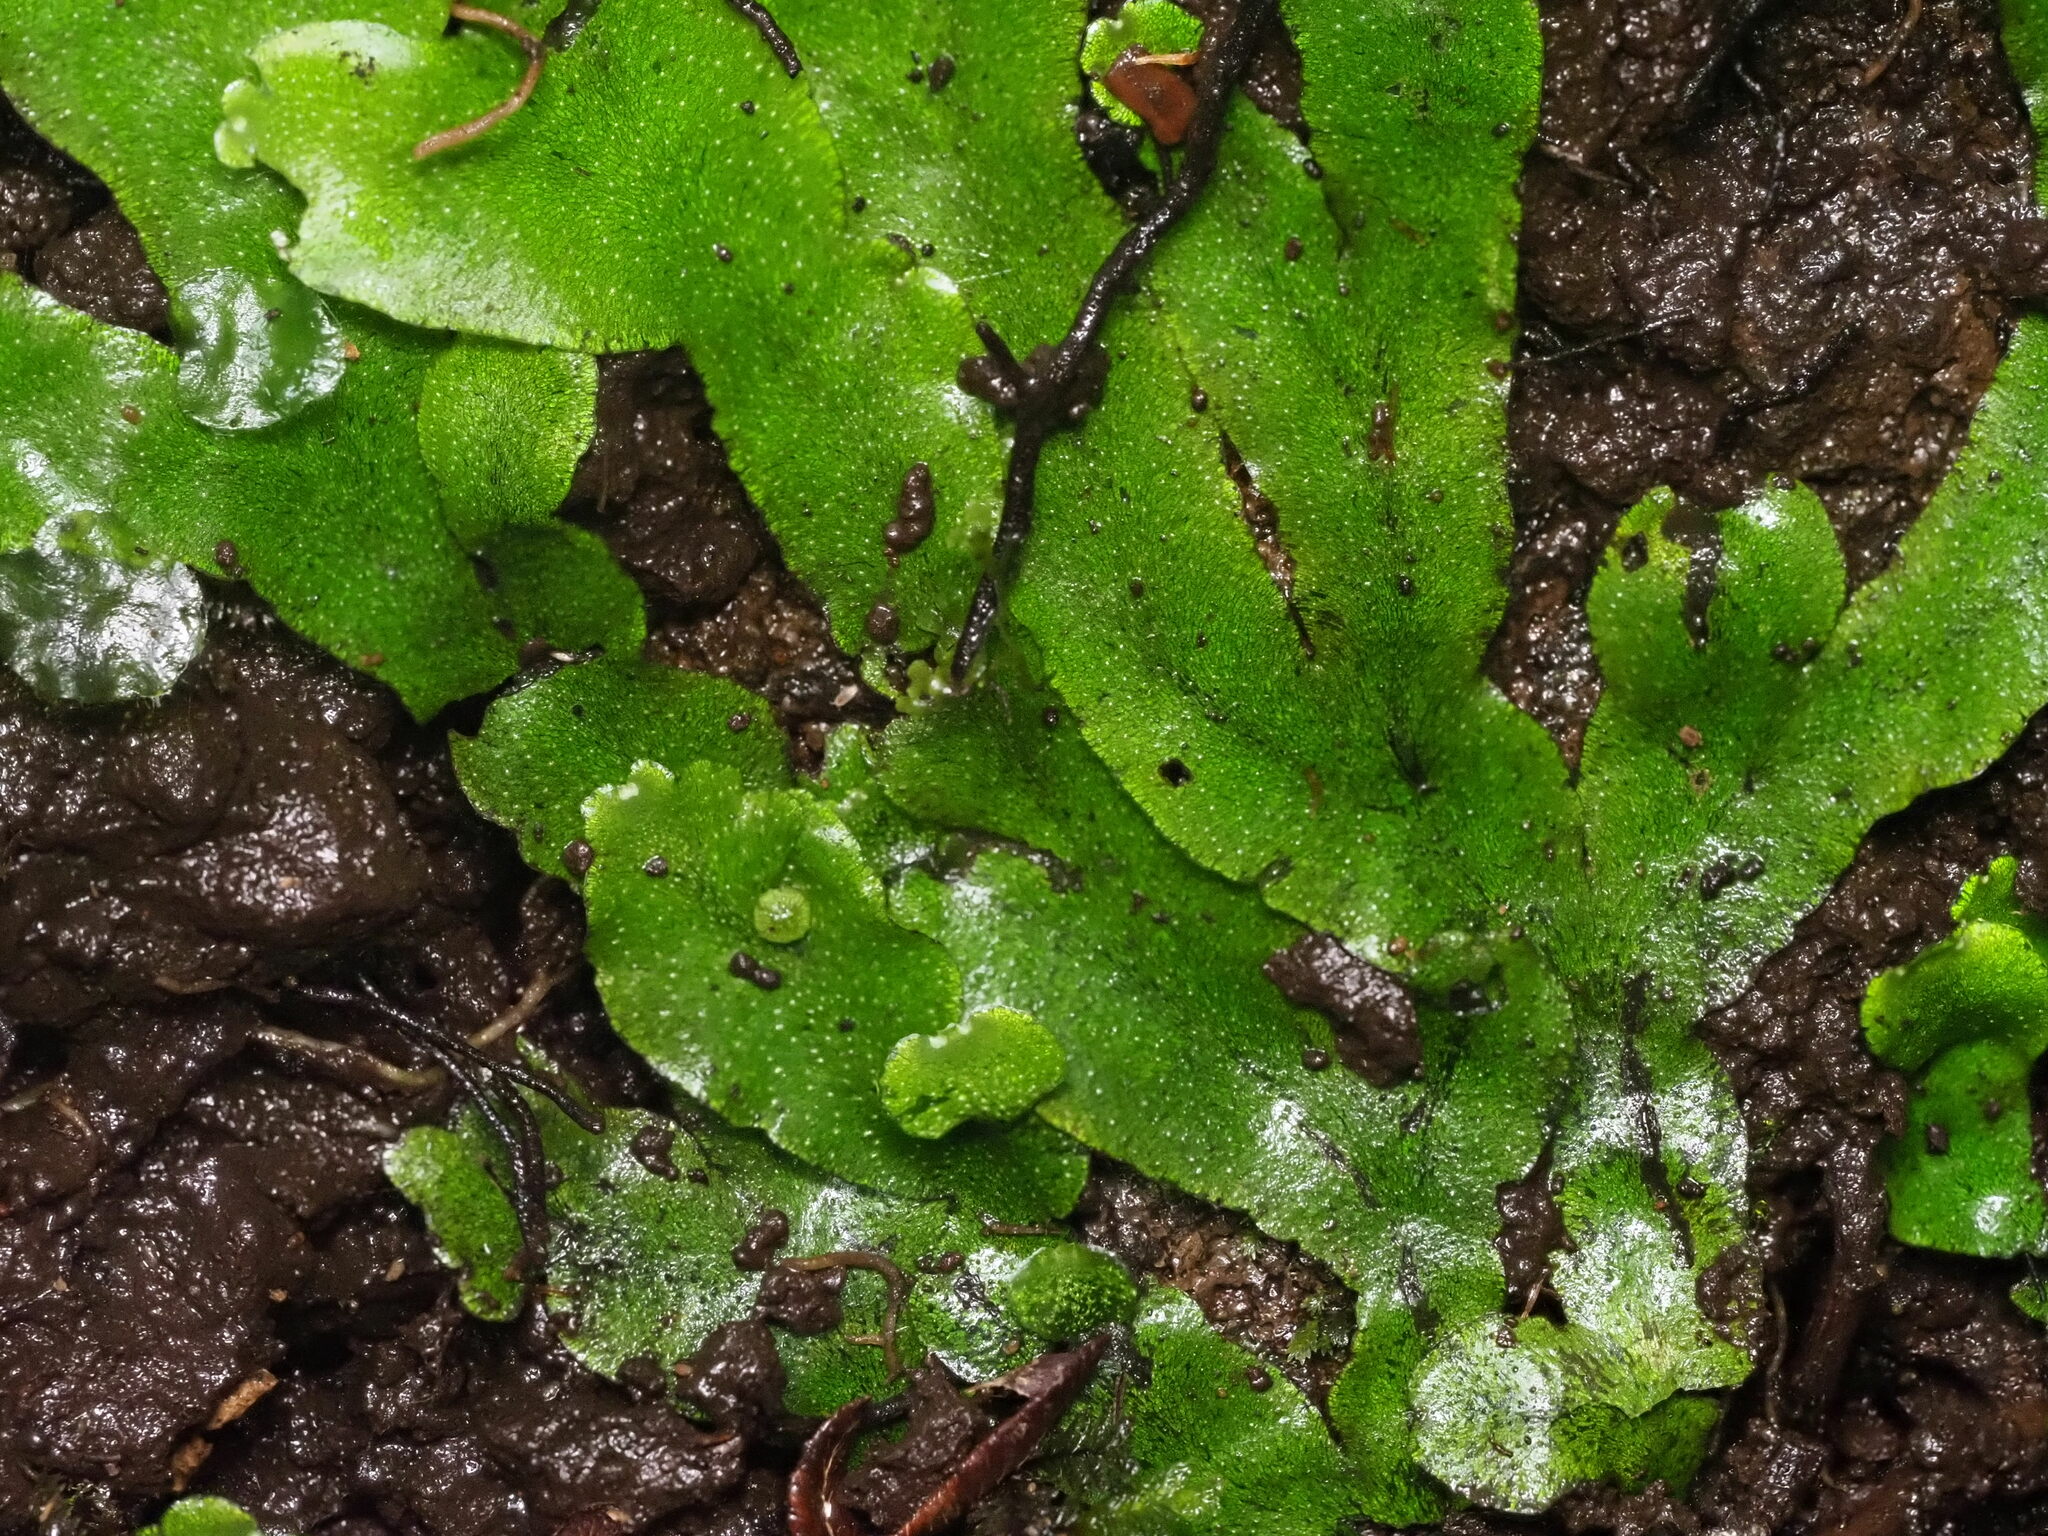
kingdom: Plantae
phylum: Marchantiophyta
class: Marchantiopsida
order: Marchantiales
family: Wiesnerellaceae
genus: Wiesnerella
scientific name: Wiesnerella denudata
